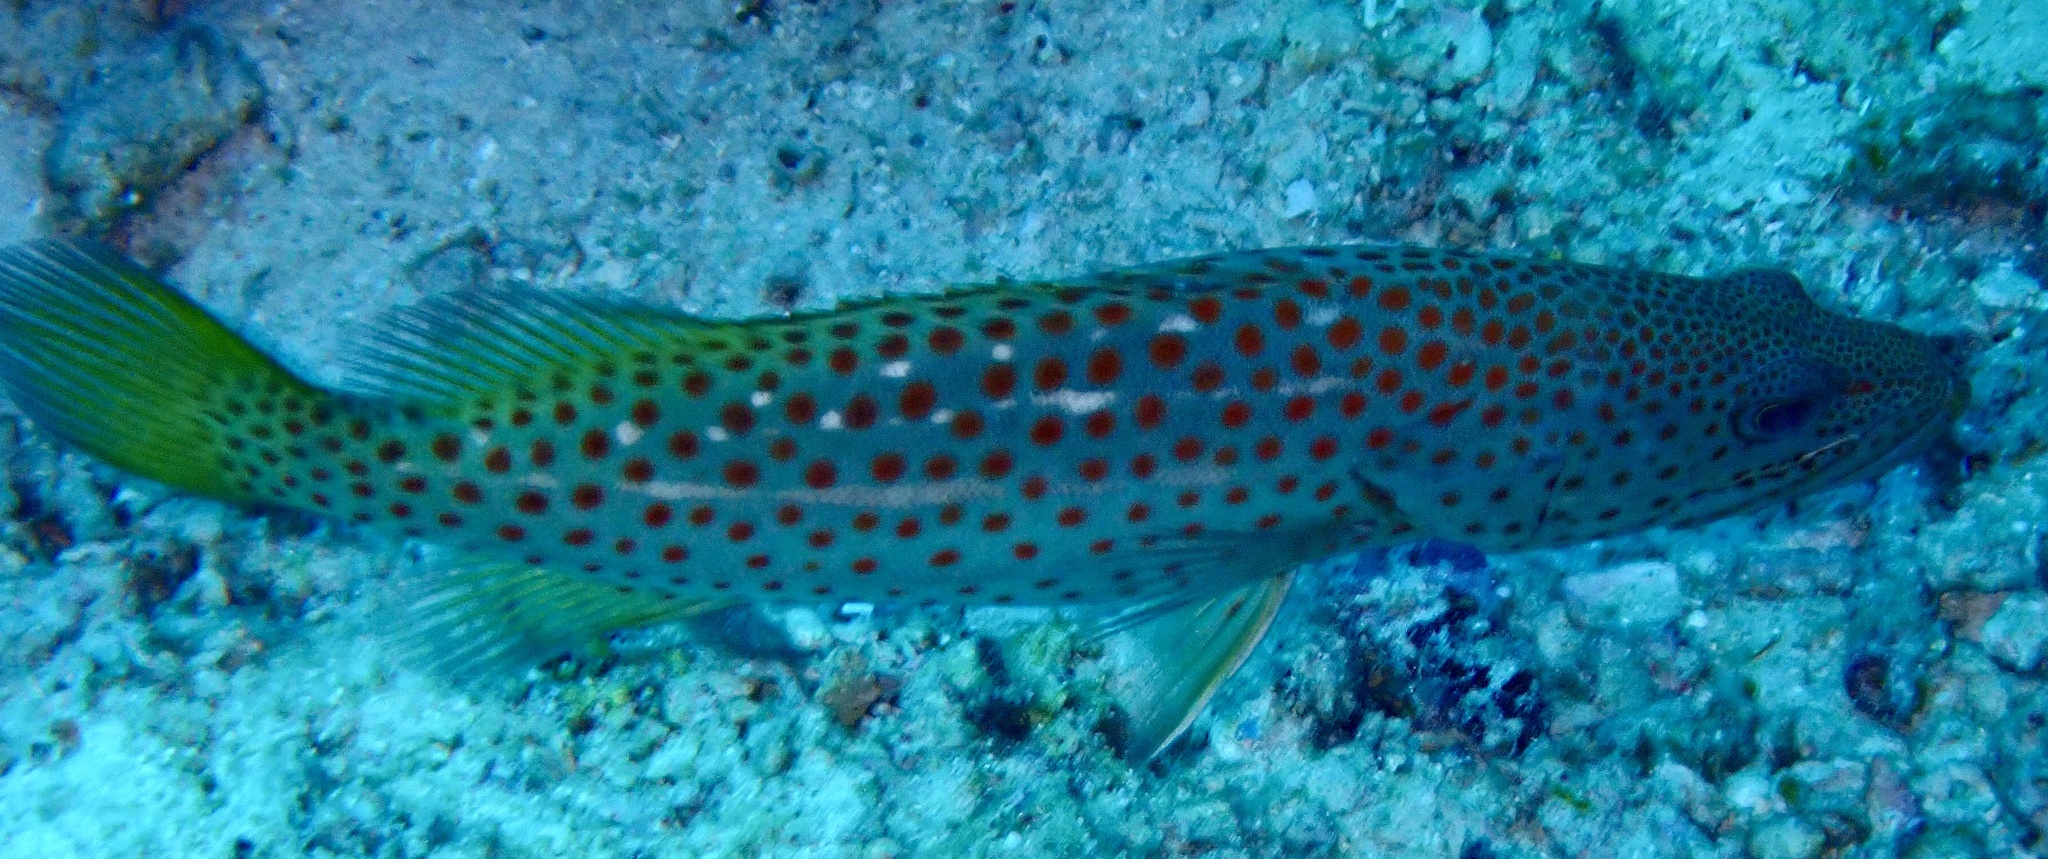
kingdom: Animalia
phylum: Chordata
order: Perciformes
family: Serranidae
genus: Anyperodon
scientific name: Anyperodon leucogrammicus
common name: Slender grouper
